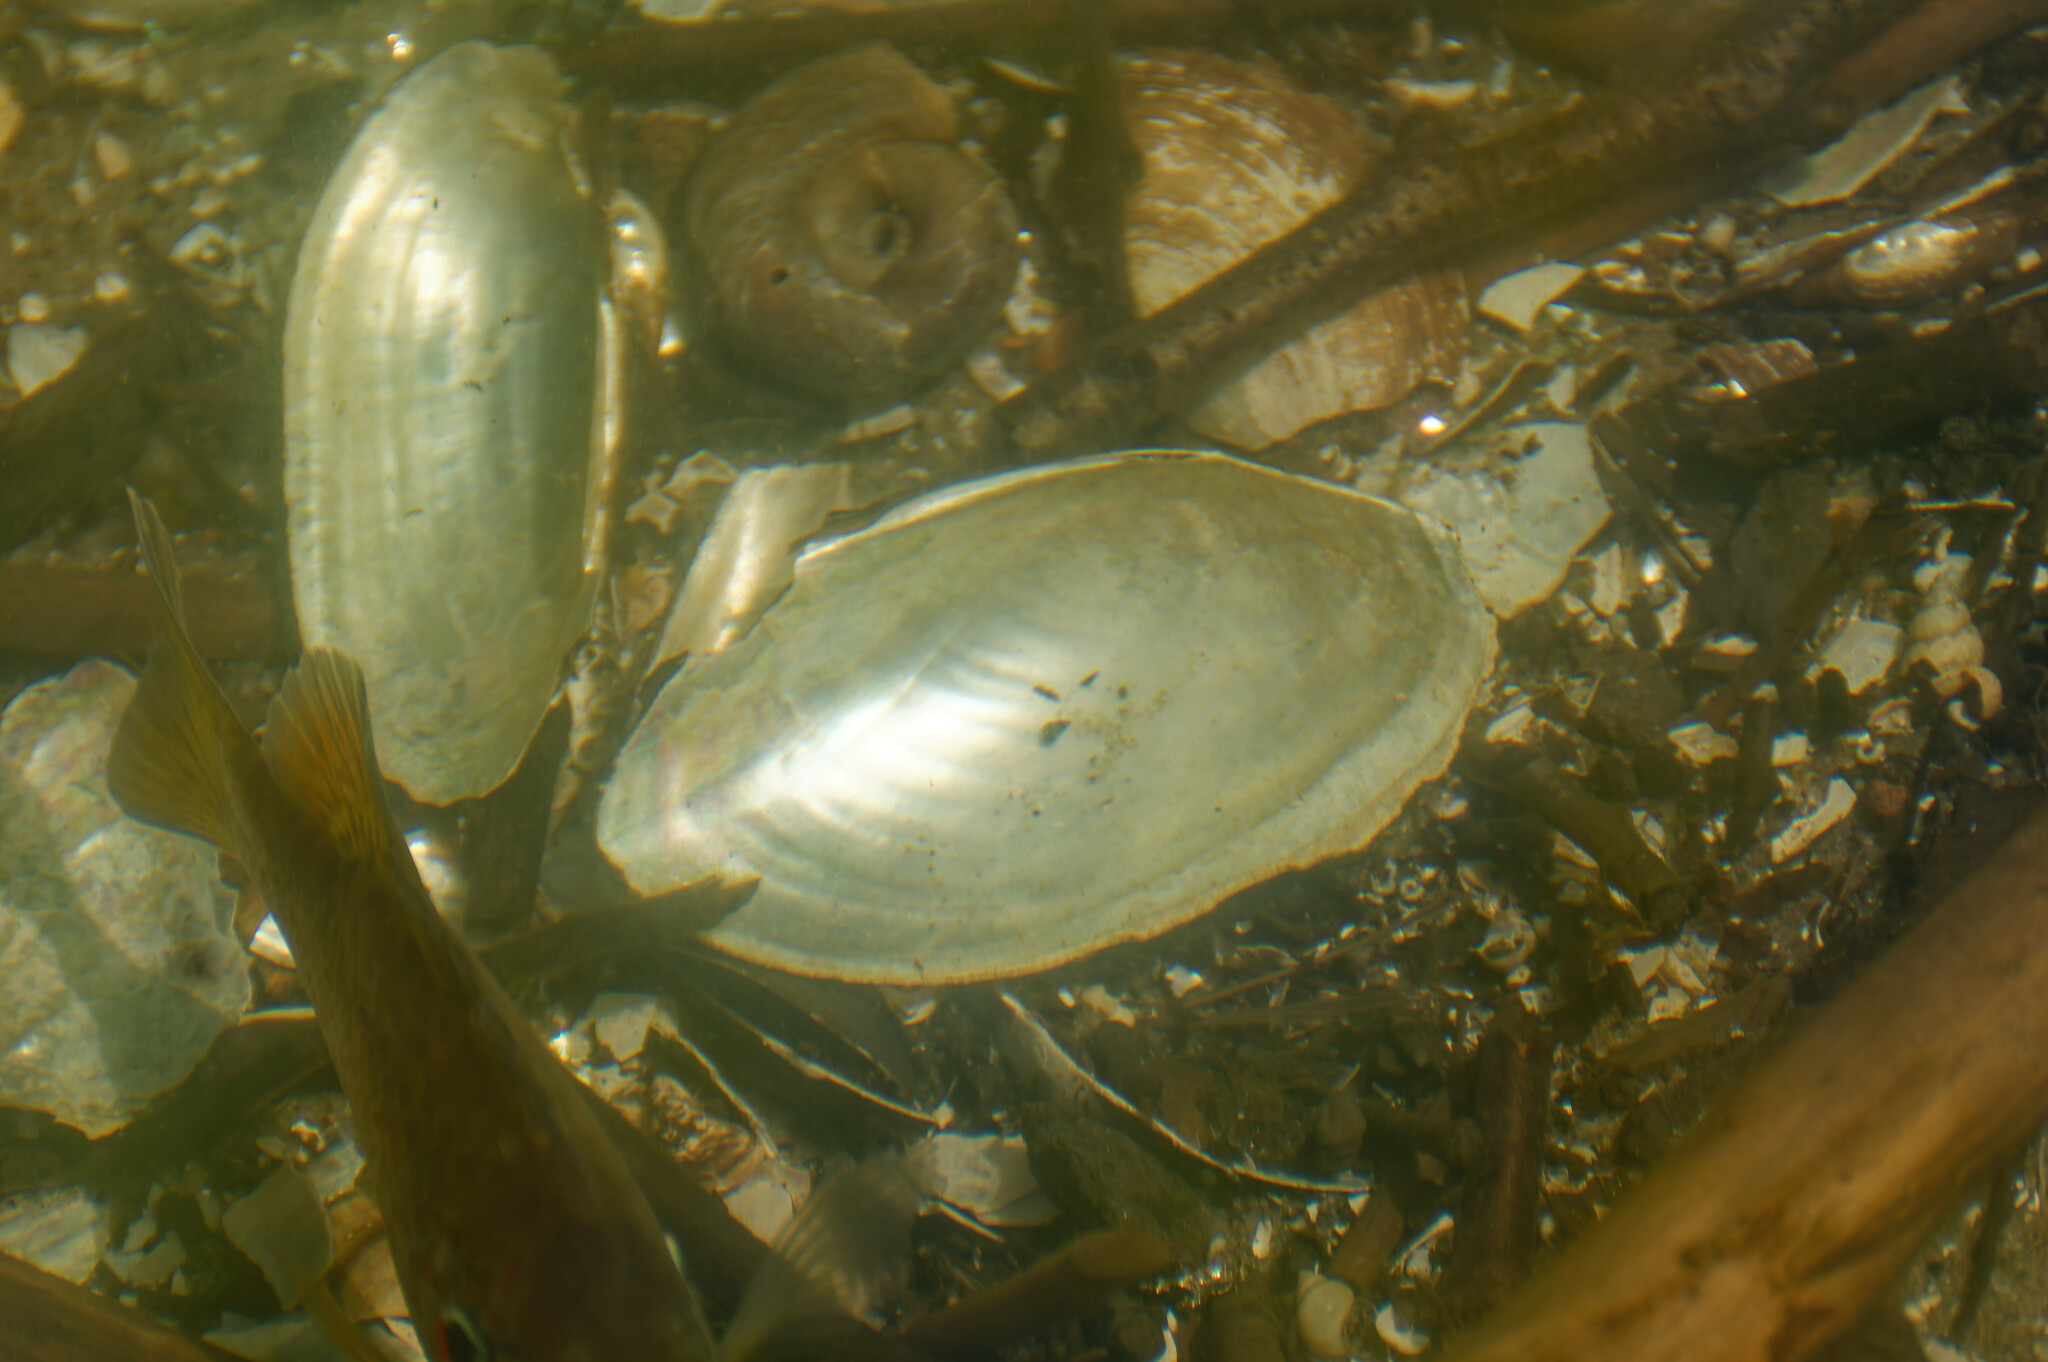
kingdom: Animalia
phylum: Mollusca
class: Bivalvia
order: Unionida
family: Unionidae
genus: Anodonta
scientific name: Anodonta cygnea
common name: Swan mussel
